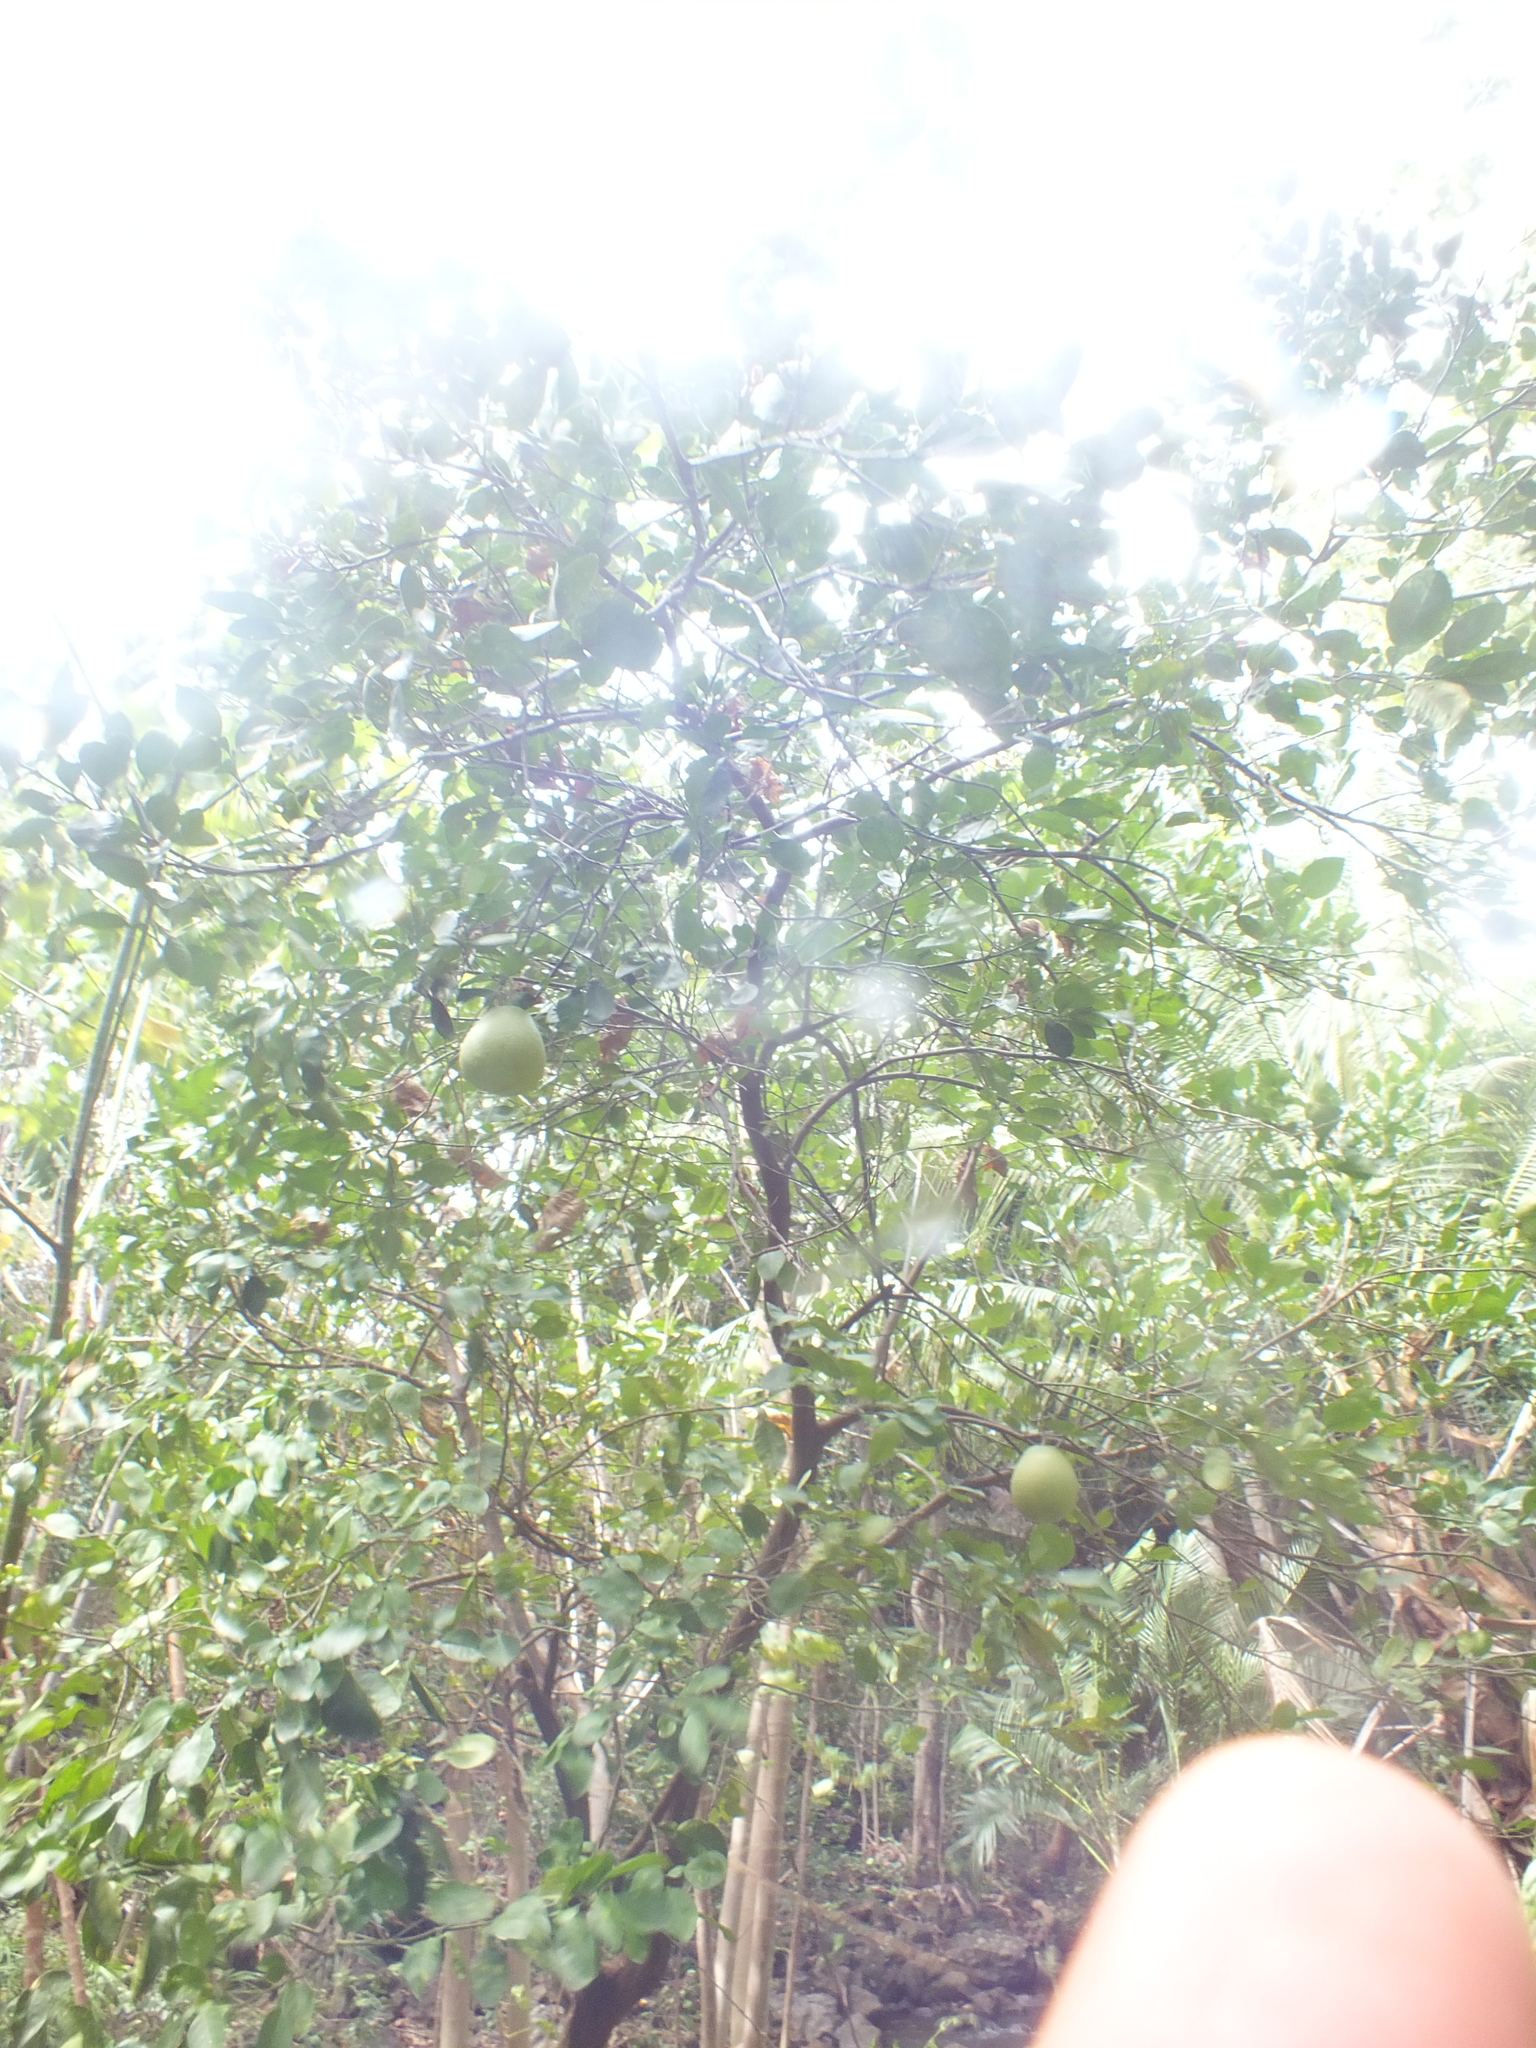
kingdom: Plantae
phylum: Tracheophyta
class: Magnoliopsida
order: Sapindales
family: Rutaceae
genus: Citrus
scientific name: Citrus maxima
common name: Pomelo
